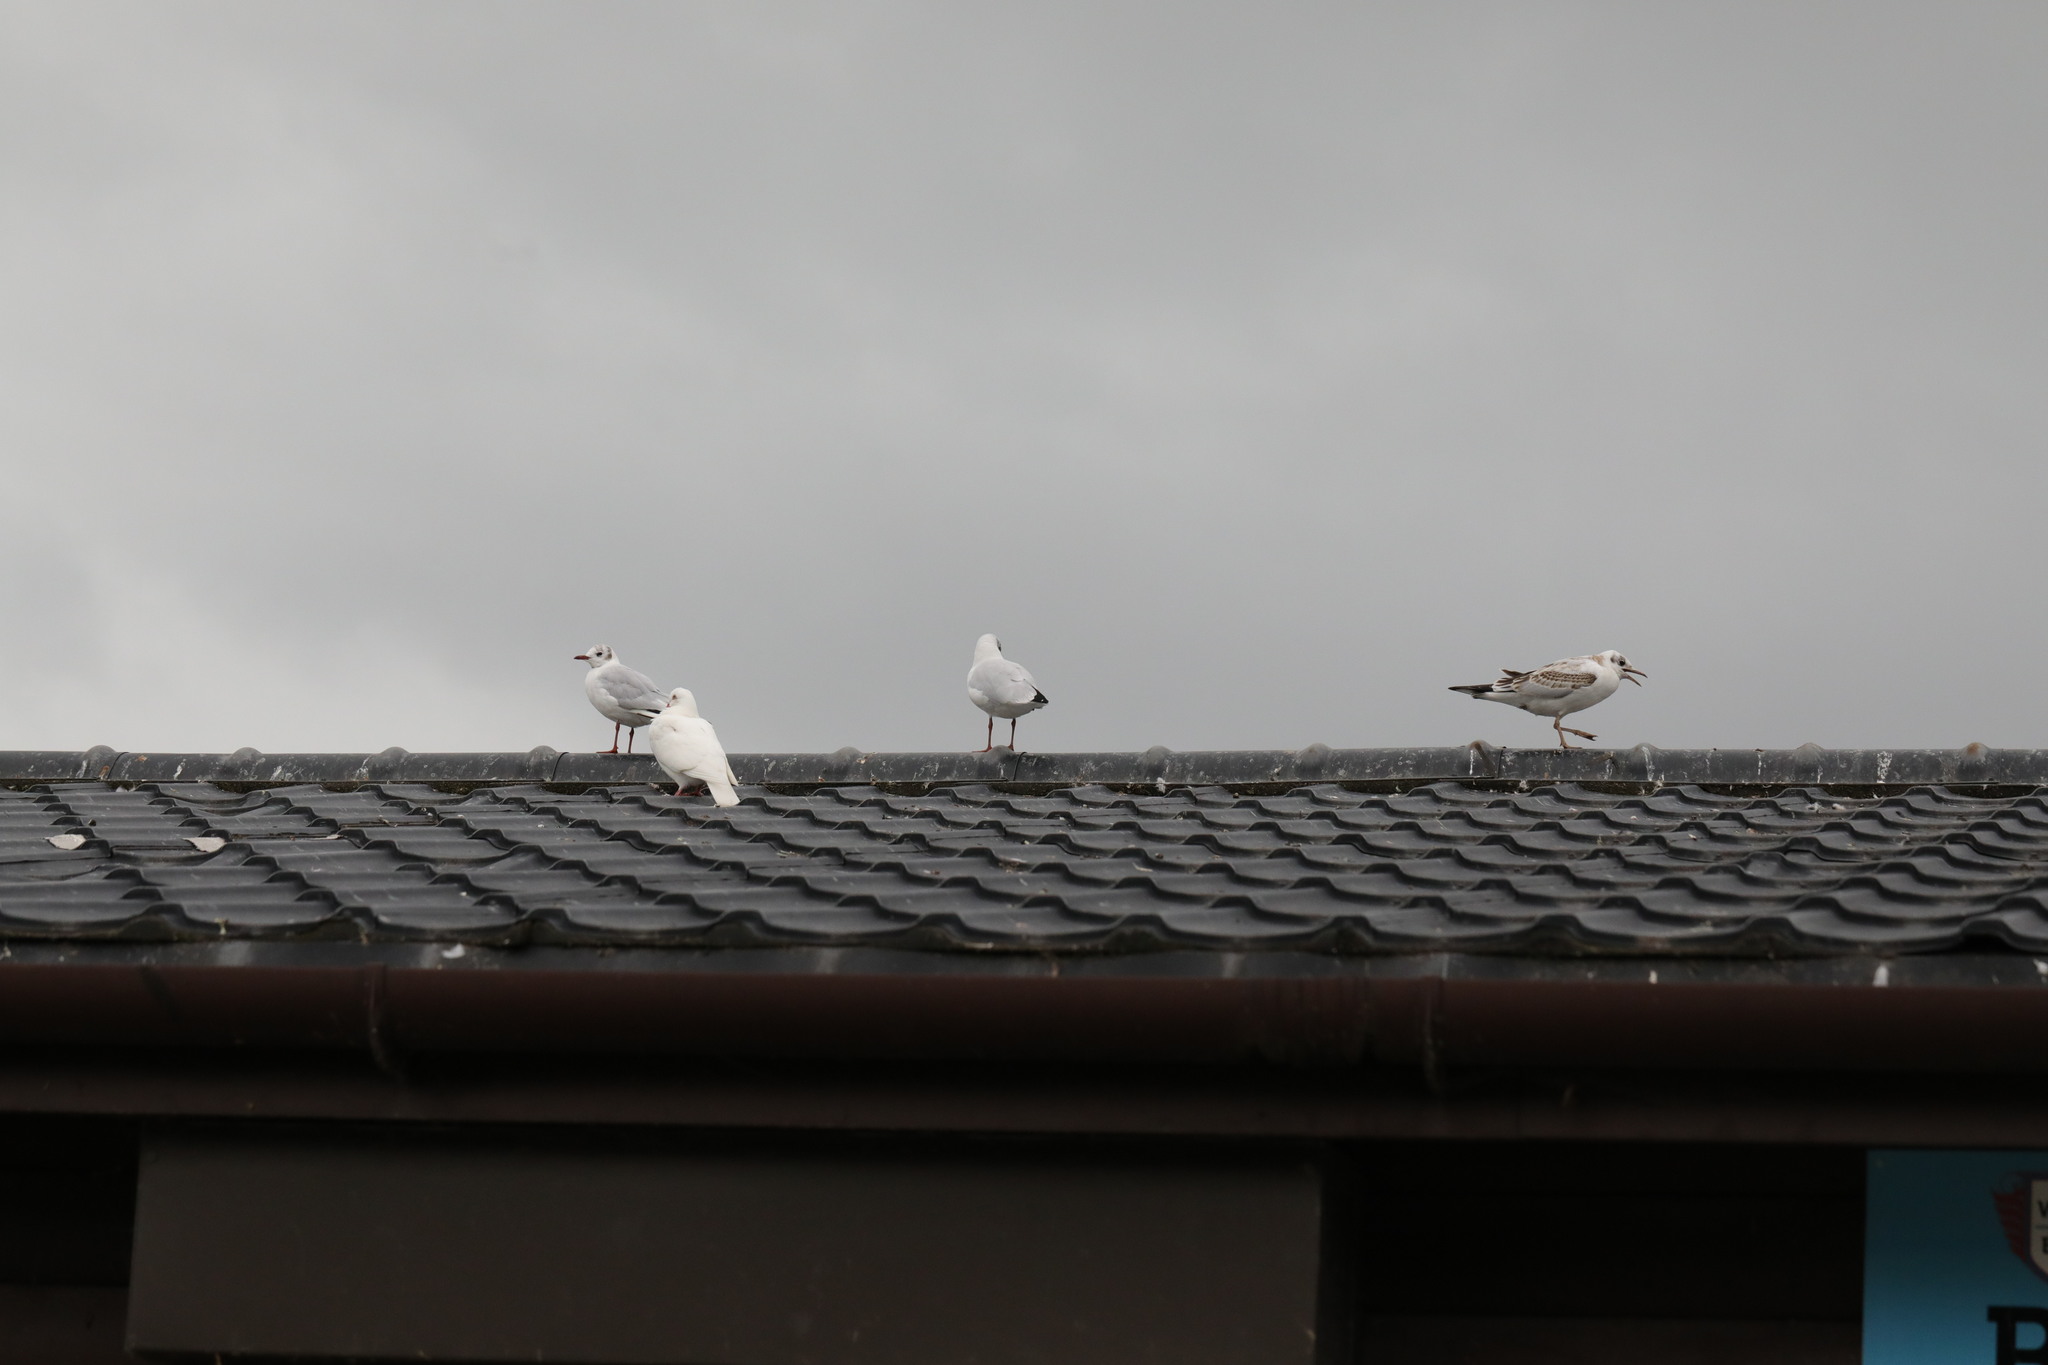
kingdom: Animalia
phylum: Chordata
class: Aves
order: Charadriiformes
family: Laridae
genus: Chroicocephalus
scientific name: Chroicocephalus ridibundus
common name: Black-headed gull
